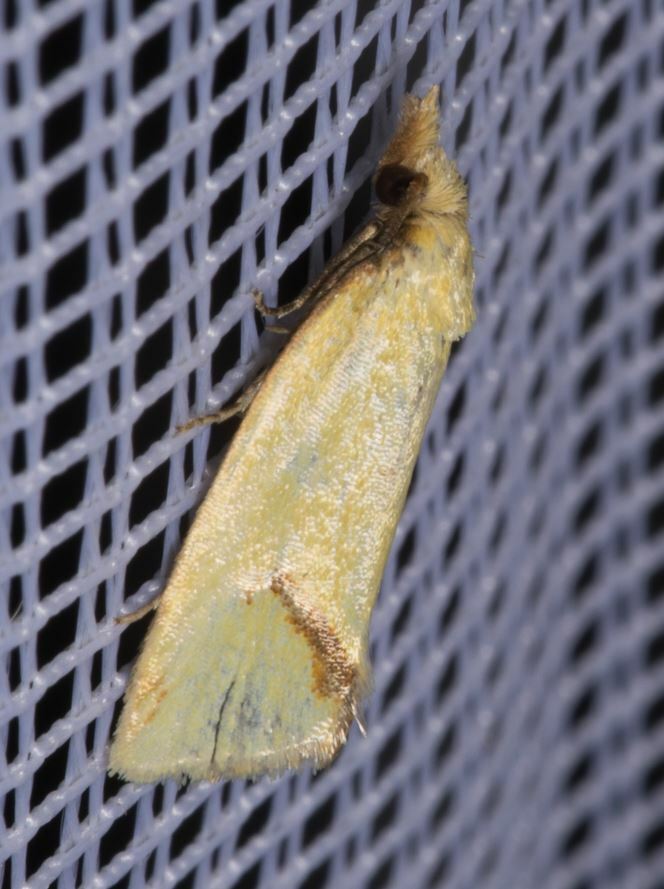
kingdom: Animalia
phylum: Arthropoda
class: Insecta
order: Lepidoptera
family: Tortricidae
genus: Agapeta
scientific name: Agapeta hamana
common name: Common yellow conch
